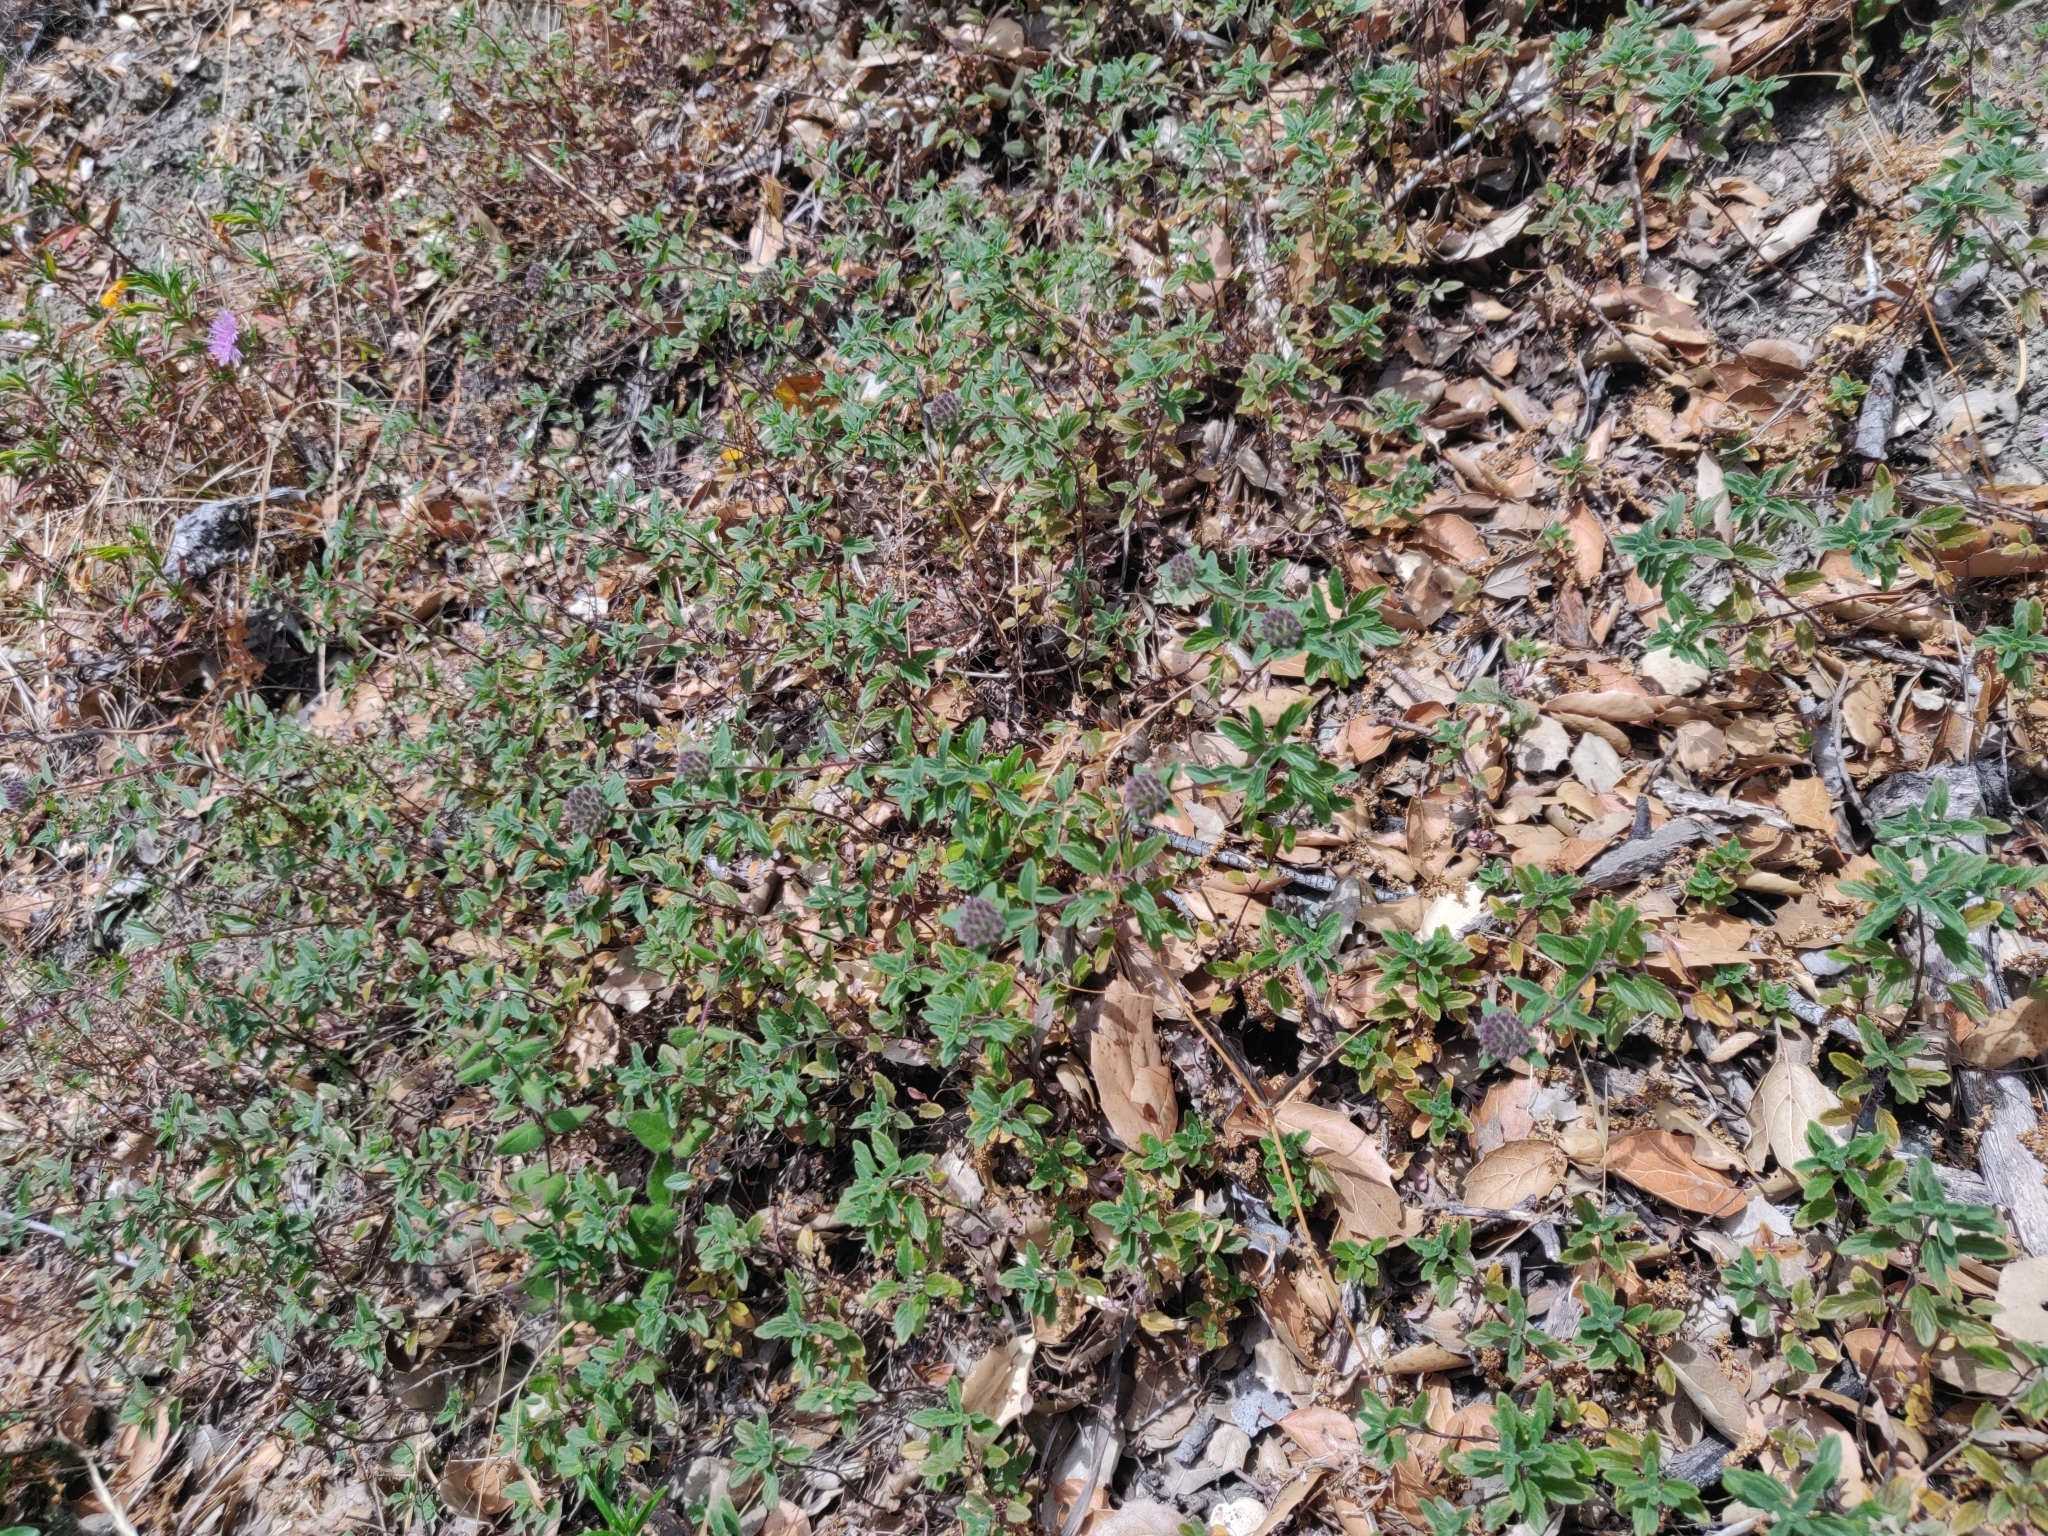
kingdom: Plantae
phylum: Tracheophyta
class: Magnoliopsida
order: Lamiales
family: Lamiaceae
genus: Monardella
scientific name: Monardella odoratissima
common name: Pacific monardella
